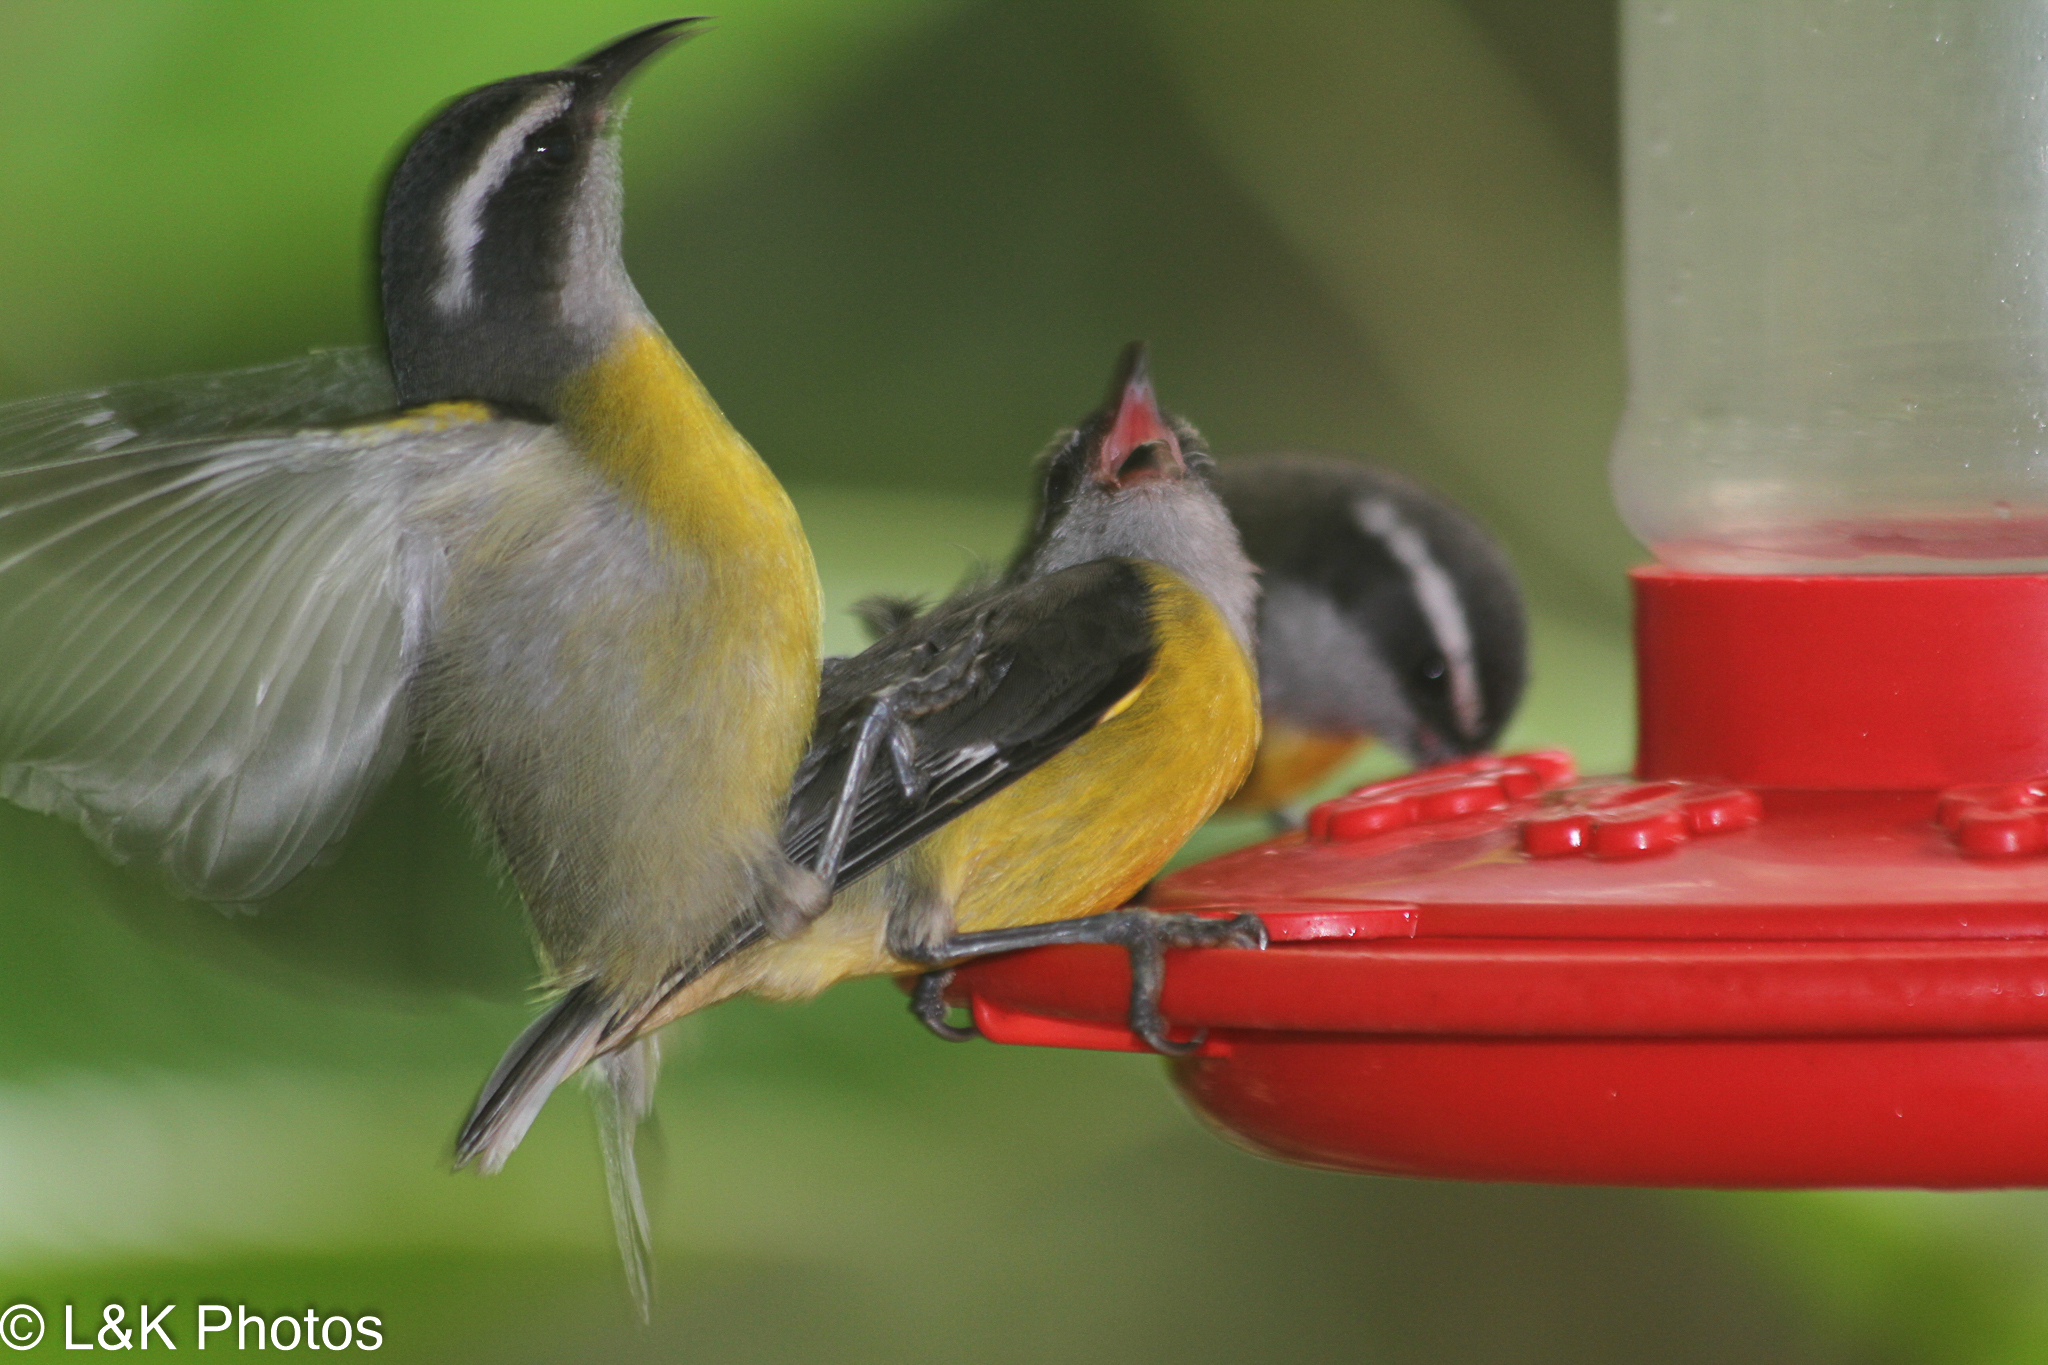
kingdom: Animalia
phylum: Chordata
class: Aves
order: Passeriformes
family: Thraupidae
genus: Coereba
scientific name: Coereba flaveola
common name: Bananaquit
